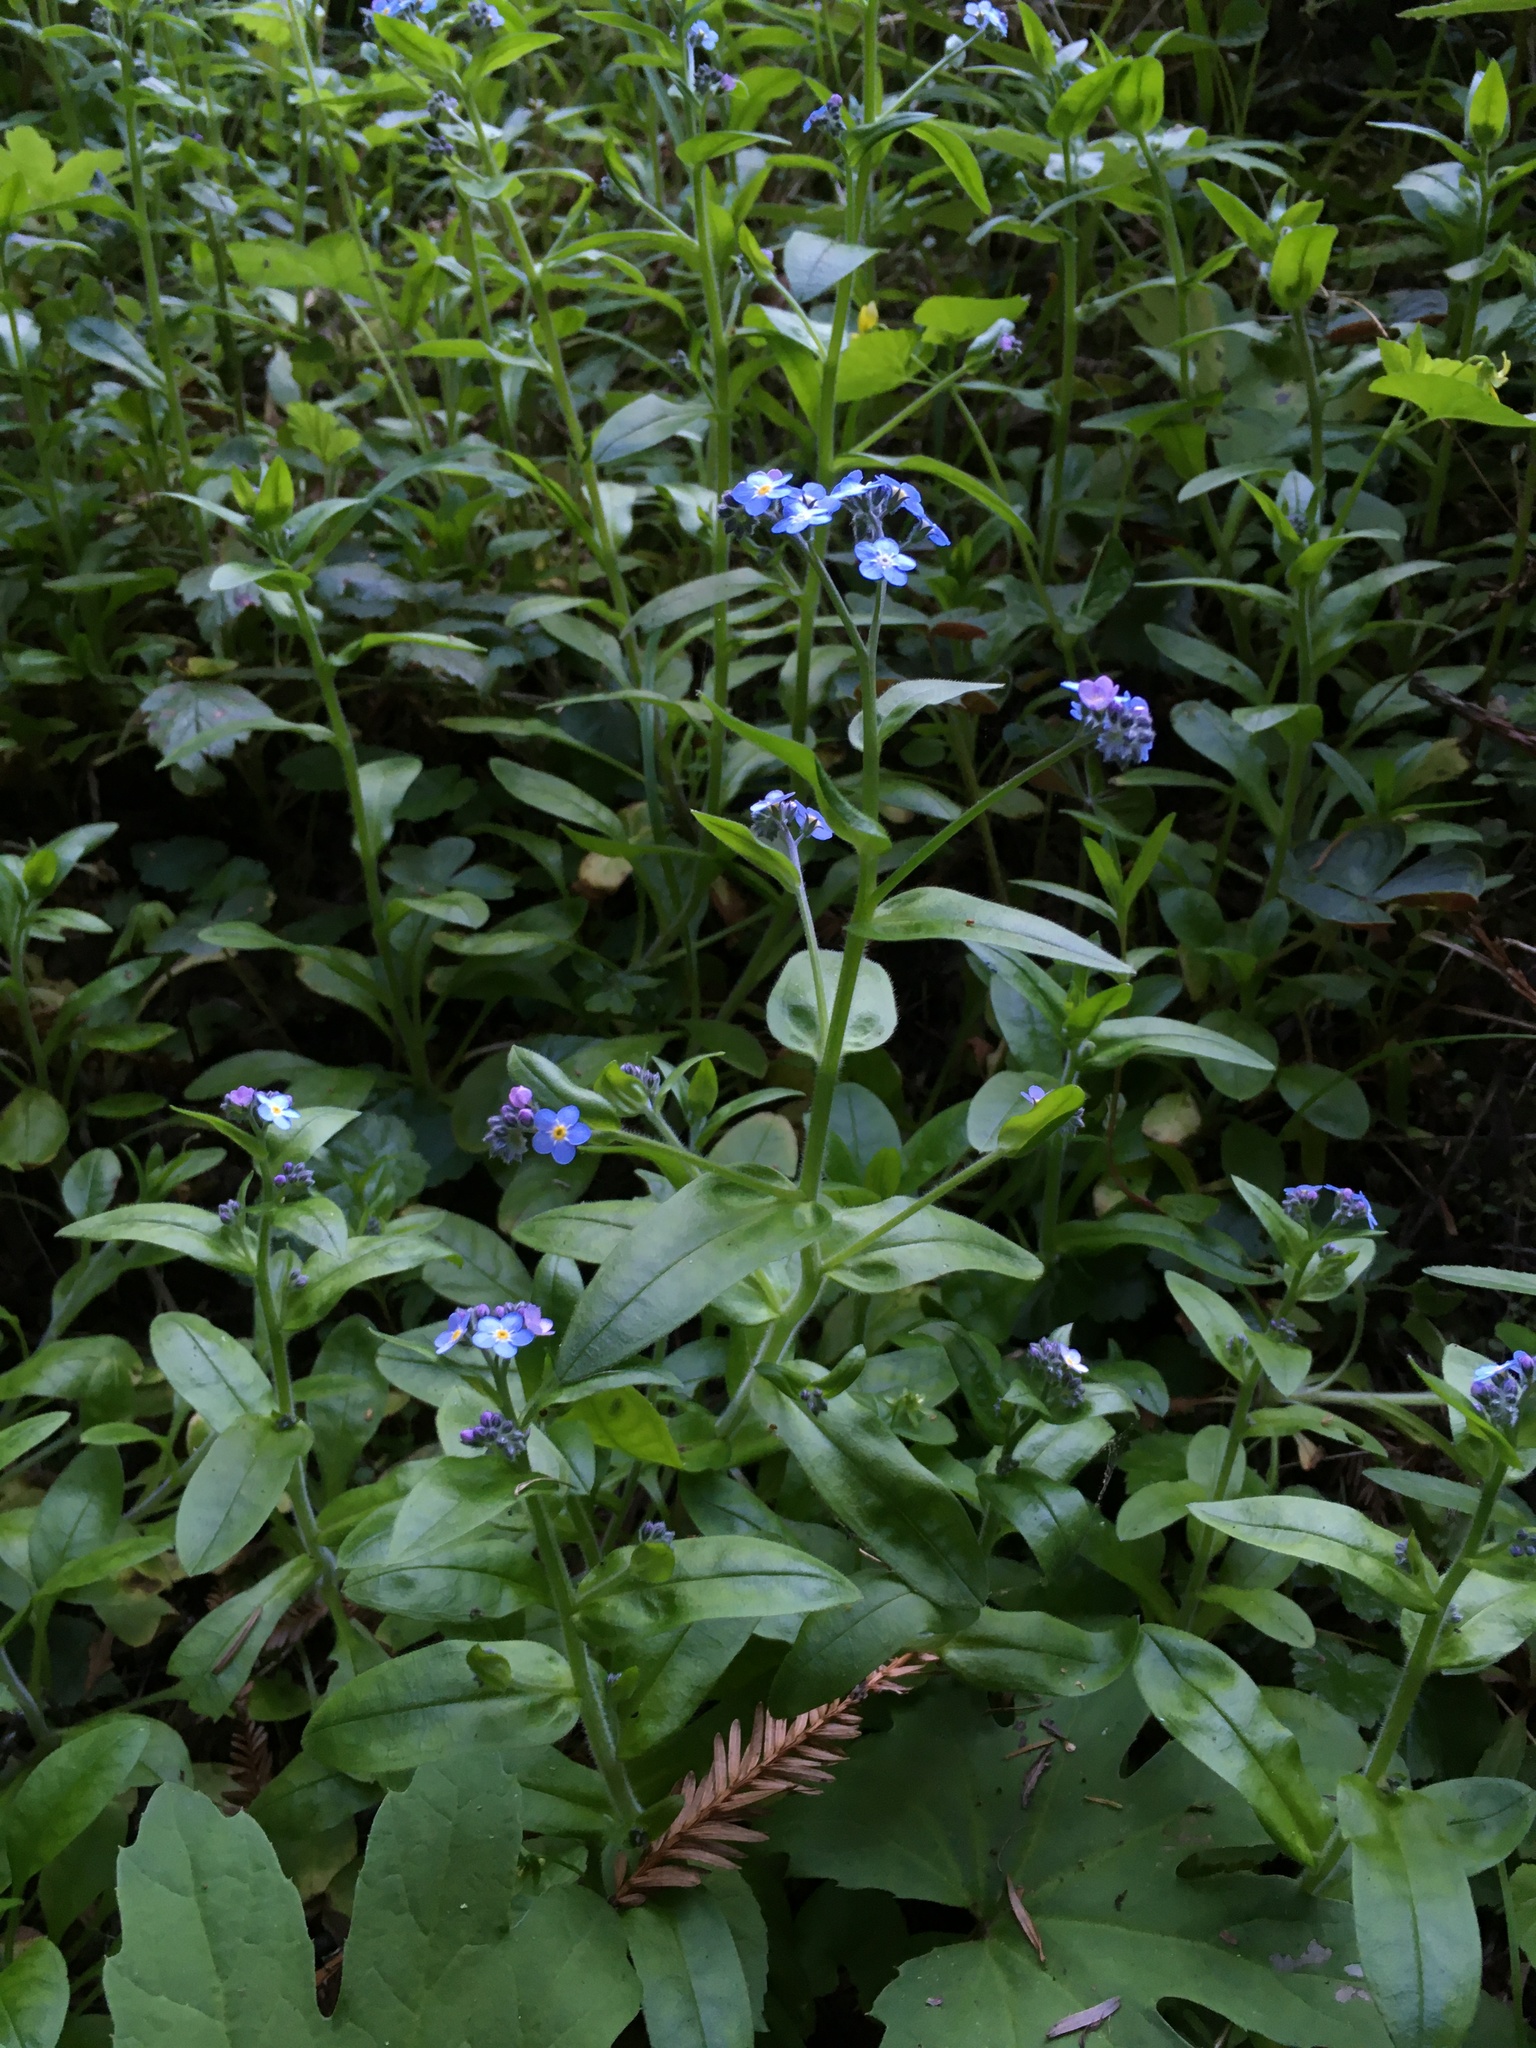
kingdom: Plantae
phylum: Tracheophyta
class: Magnoliopsida
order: Boraginales
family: Boraginaceae
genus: Myosotis
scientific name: Myosotis latifolia
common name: Broadleaf forget-me-not
